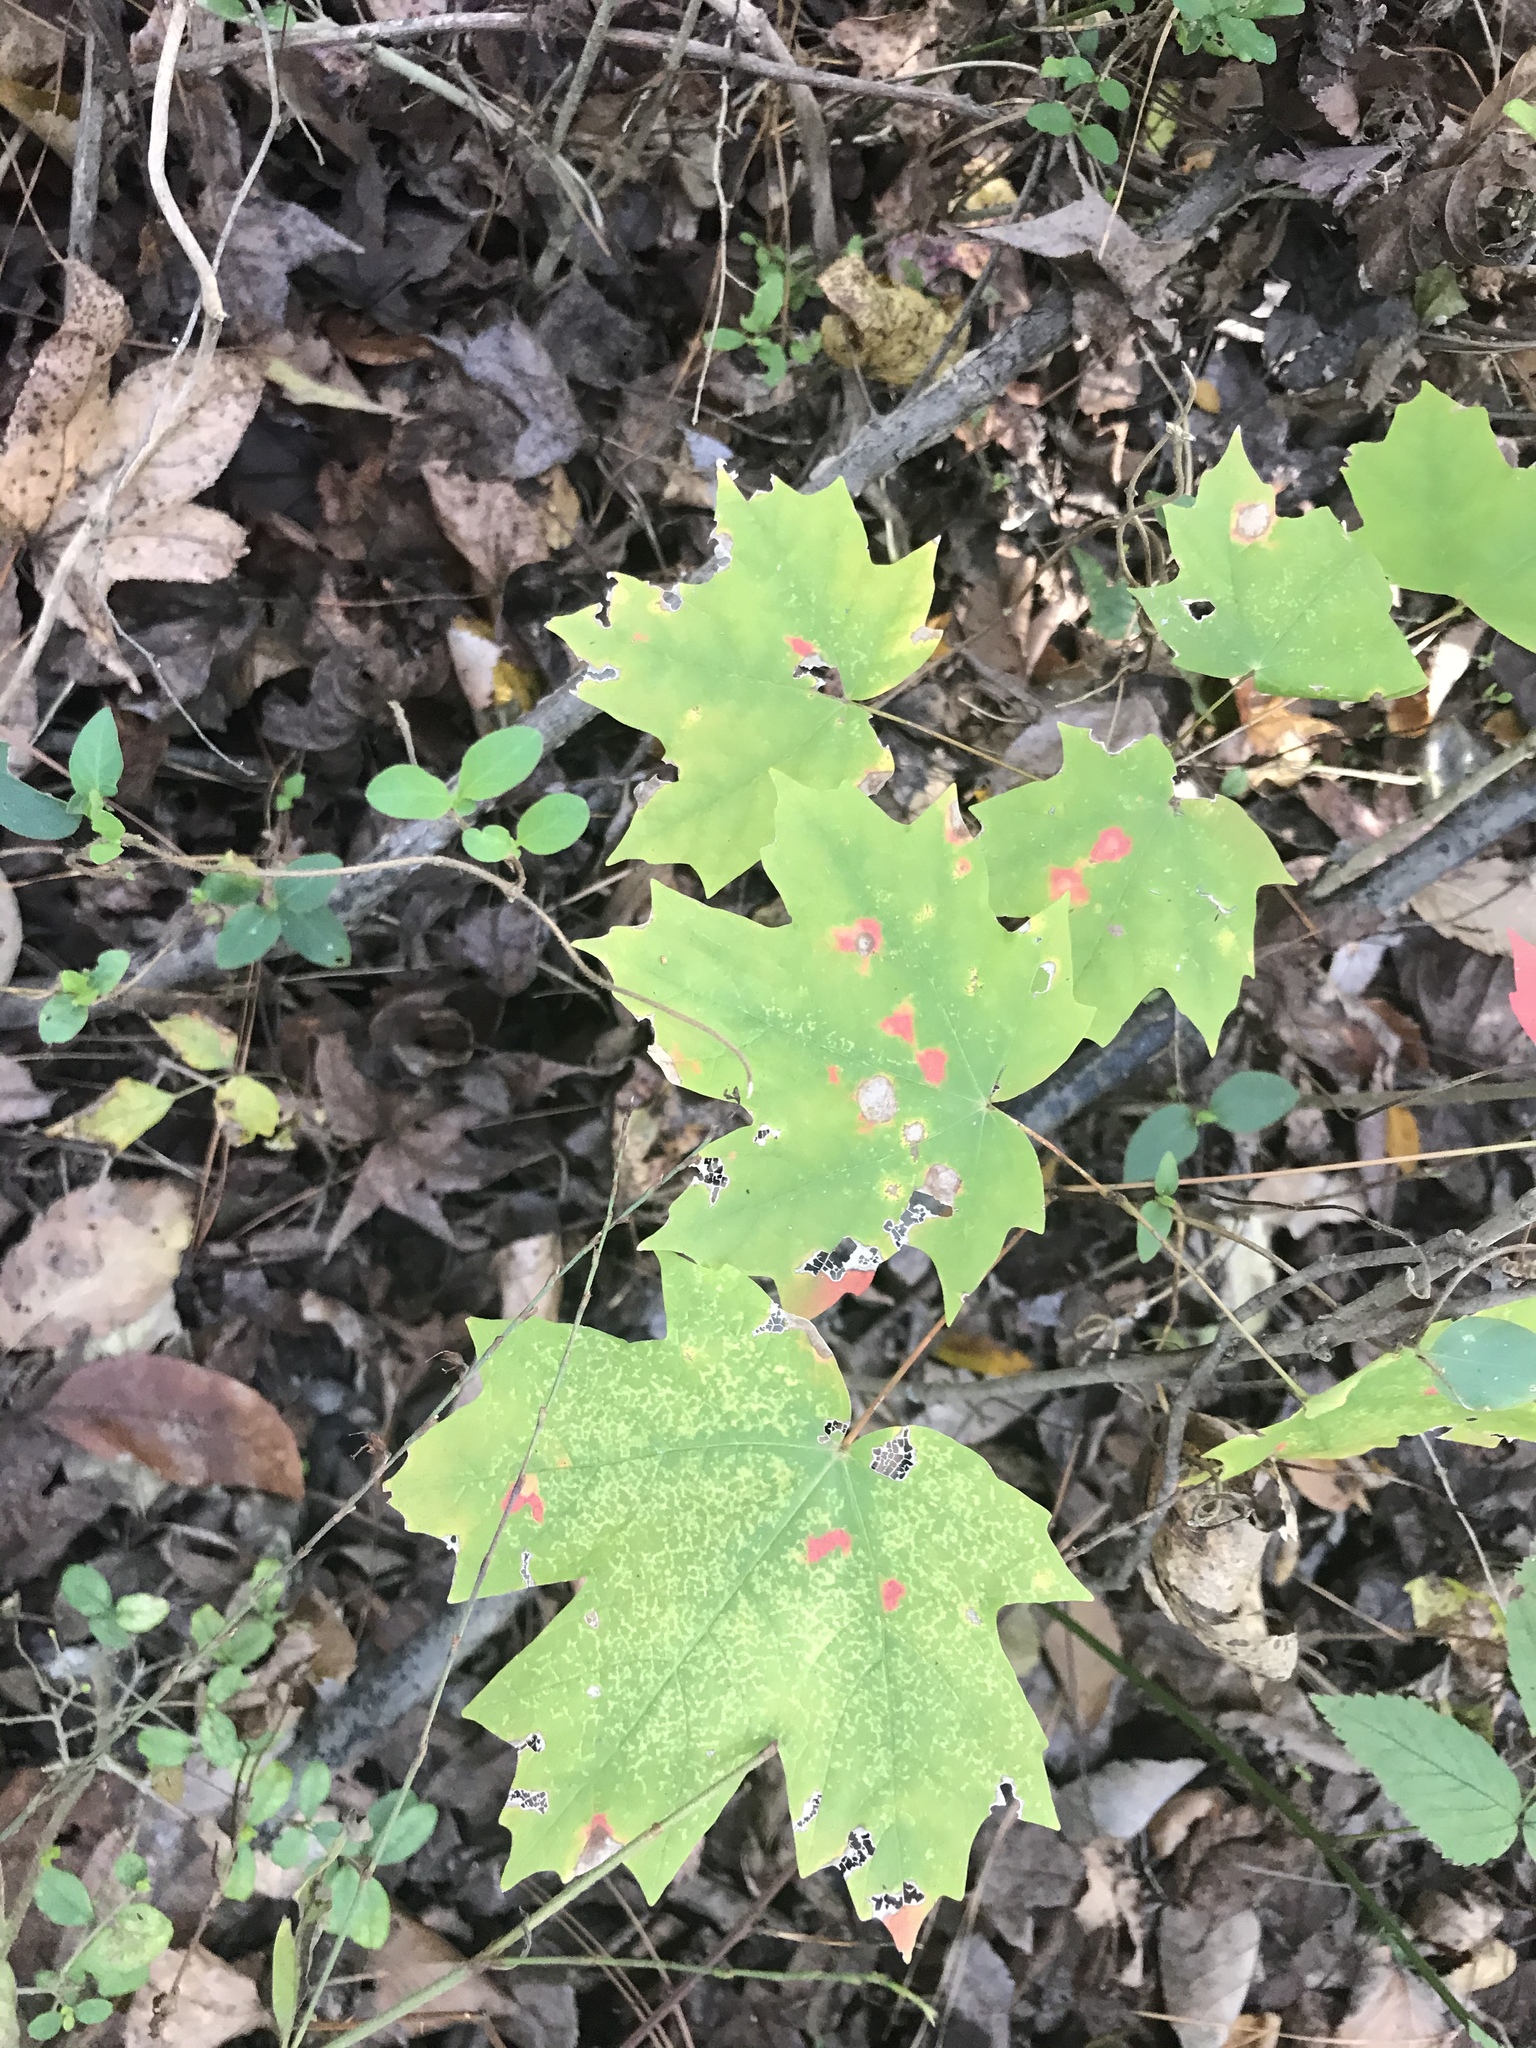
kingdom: Plantae
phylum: Tracheophyta
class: Magnoliopsida
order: Sapindales
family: Sapindaceae
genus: Acer
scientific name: Acer saccharum
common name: Sugar maple
